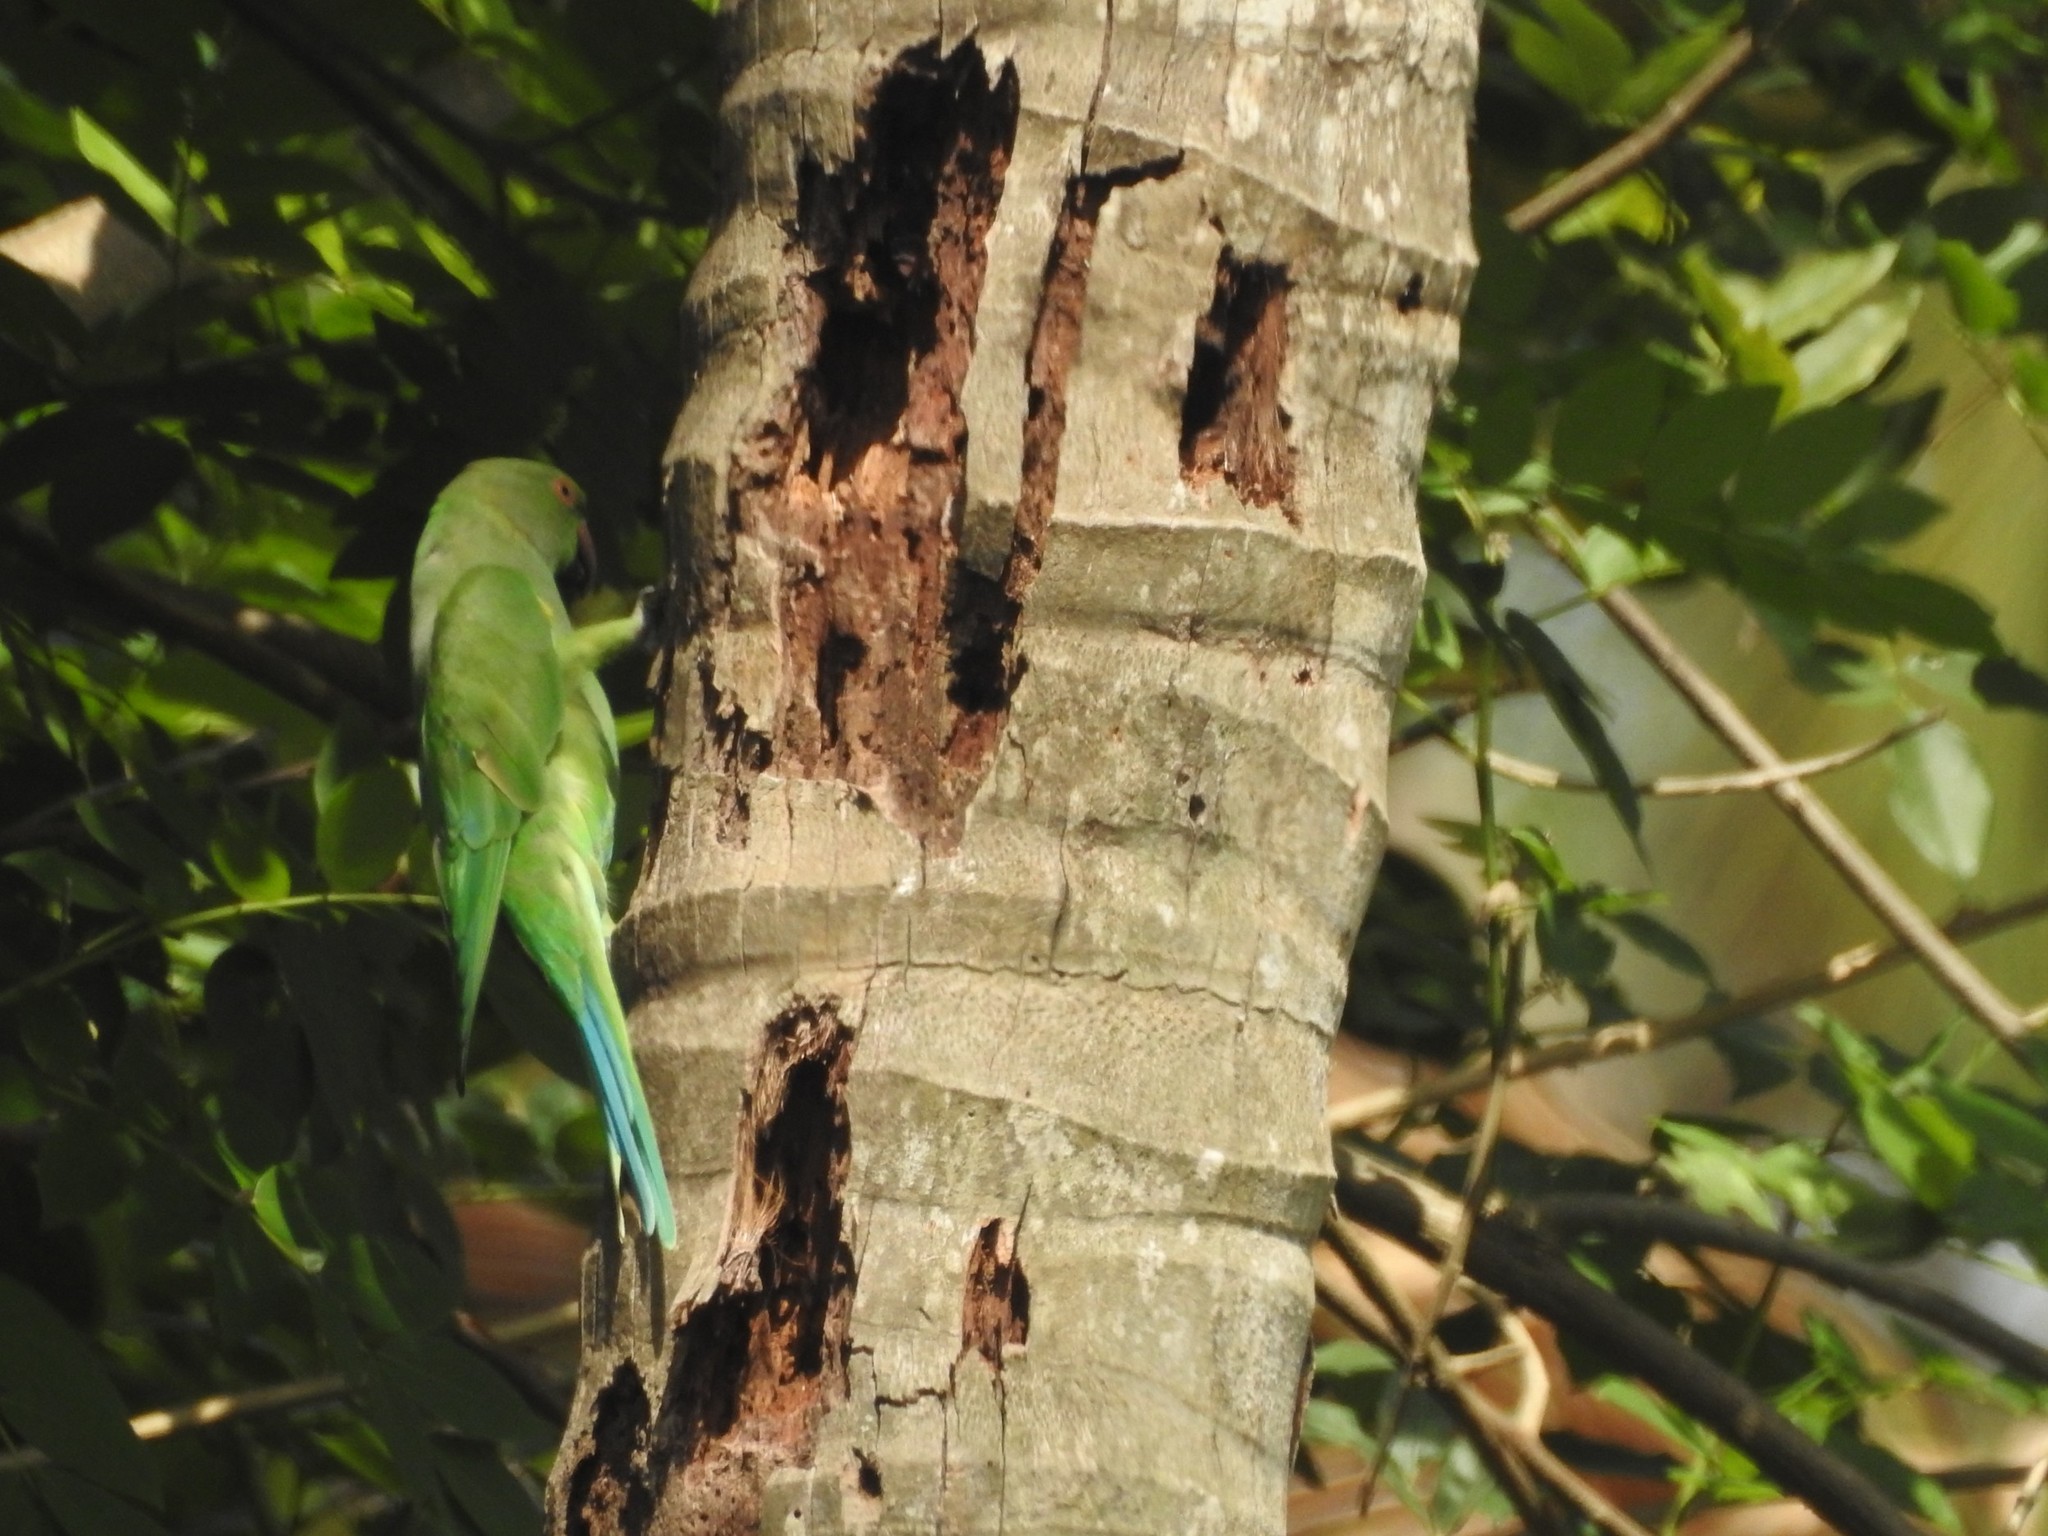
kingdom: Animalia
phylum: Chordata
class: Aves
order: Psittaciformes
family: Psittacidae
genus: Psittacula
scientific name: Psittacula krameri
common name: Rose-ringed parakeet
